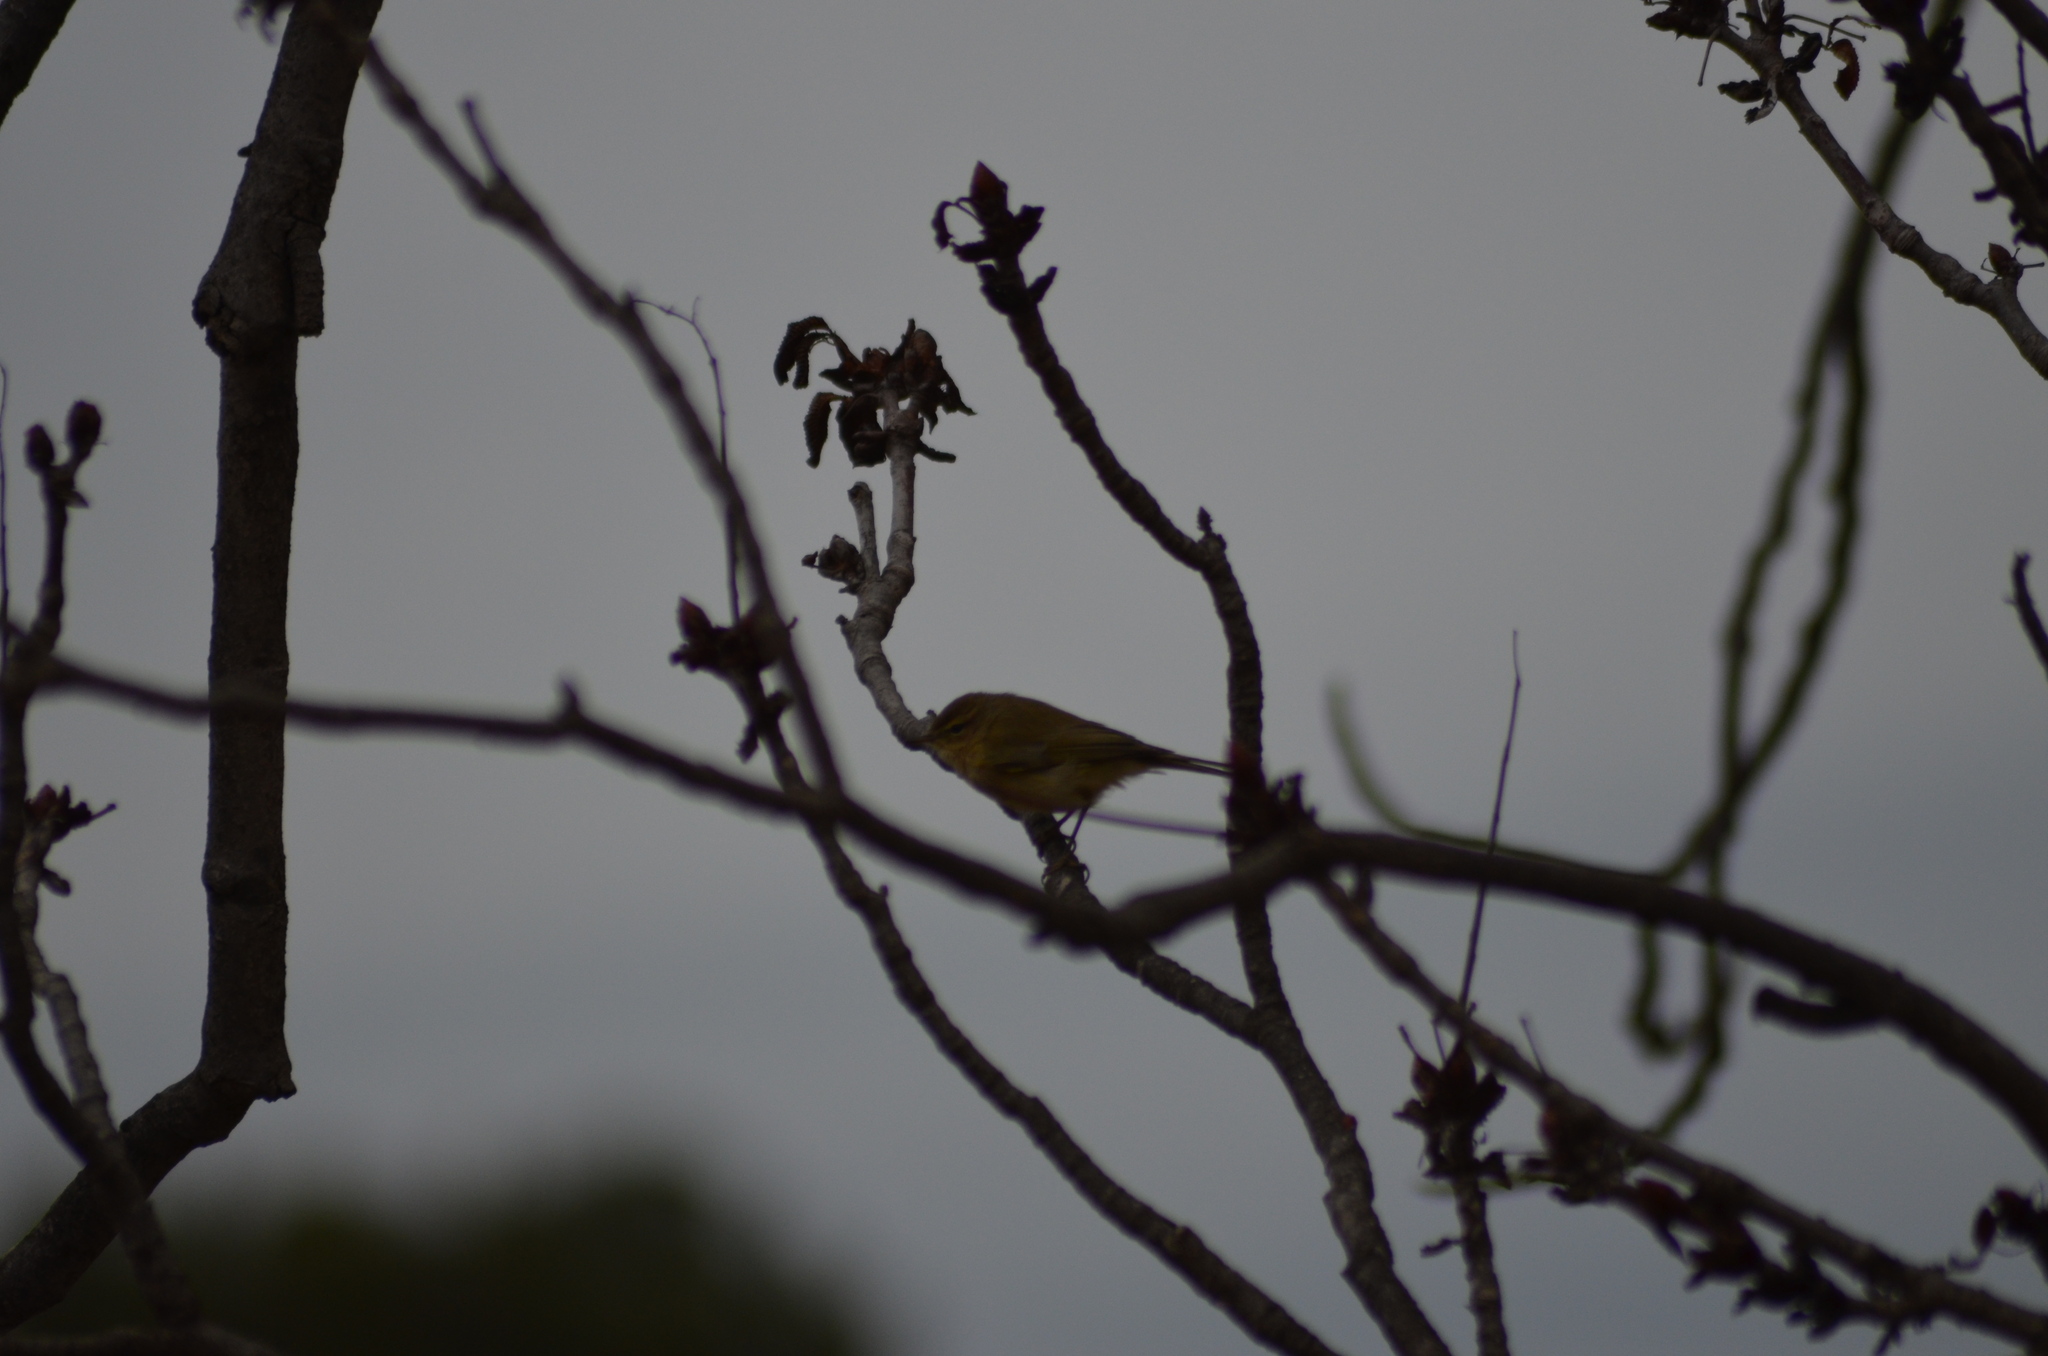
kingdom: Animalia
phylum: Chordata
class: Aves
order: Passeriformes
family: Phylloscopidae
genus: Phylloscopus
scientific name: Phylloscopus collybita
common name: Common chiffchaff
